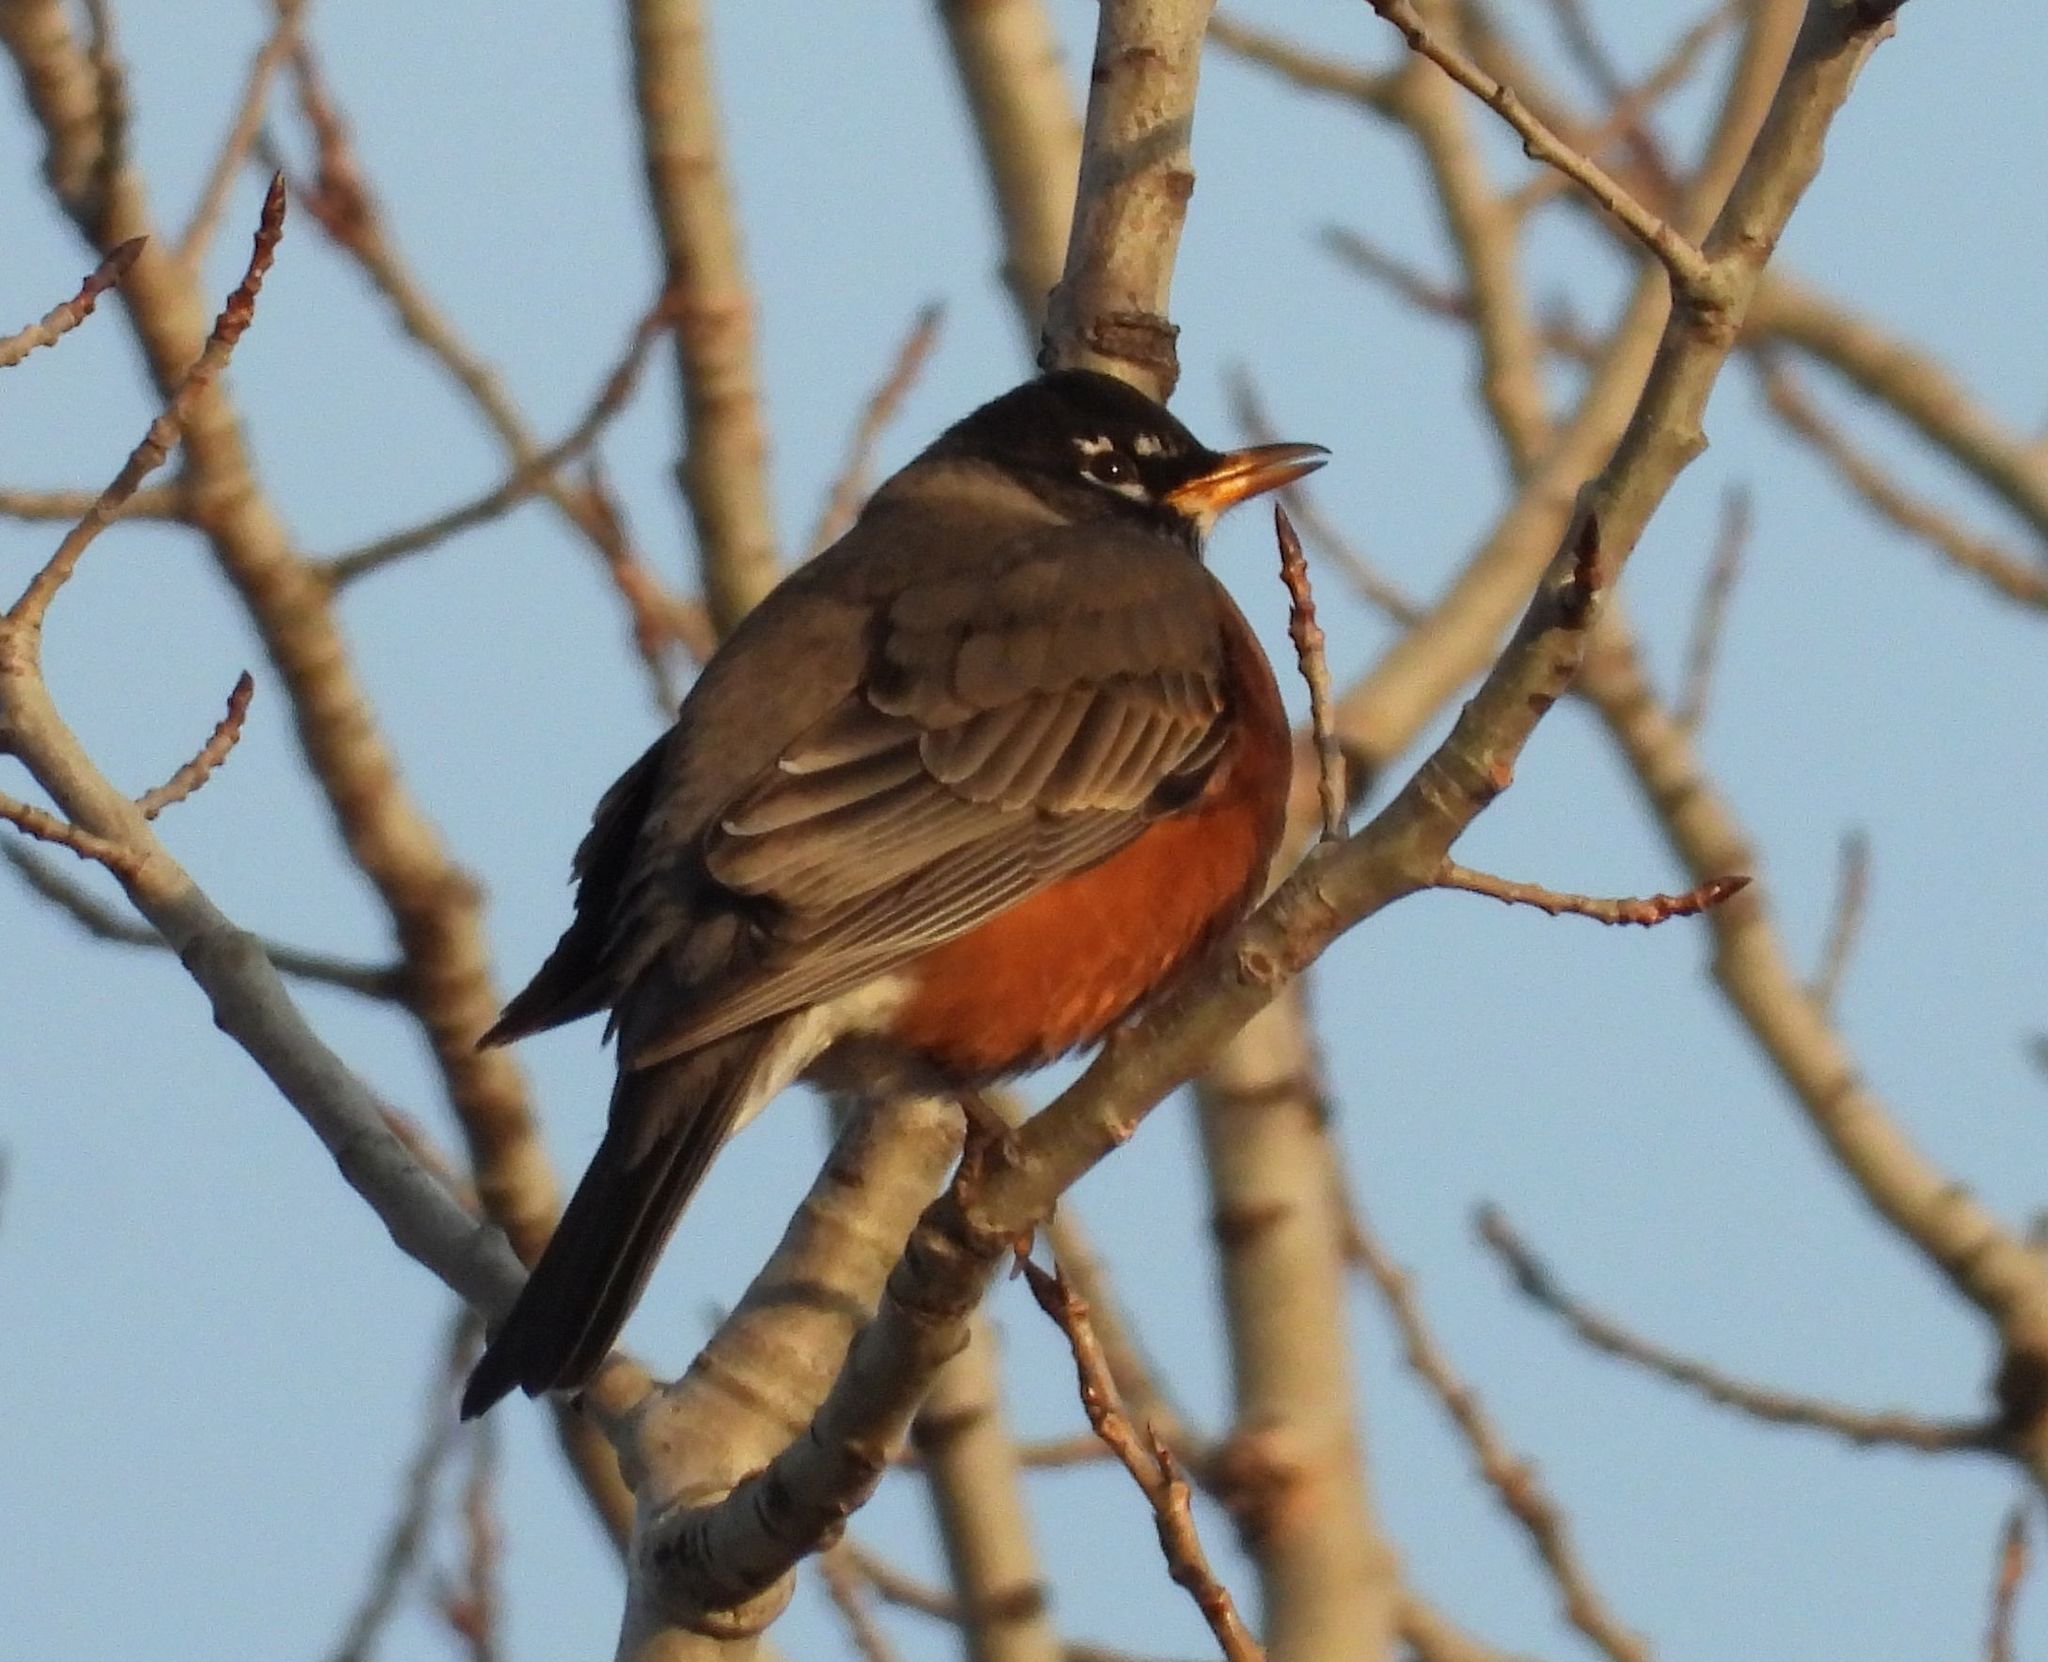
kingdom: Animalia
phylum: Chordata
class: Aves
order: Passeriformes
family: Turdidae
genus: Turdus
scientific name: Turdus migratorius
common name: American robin
